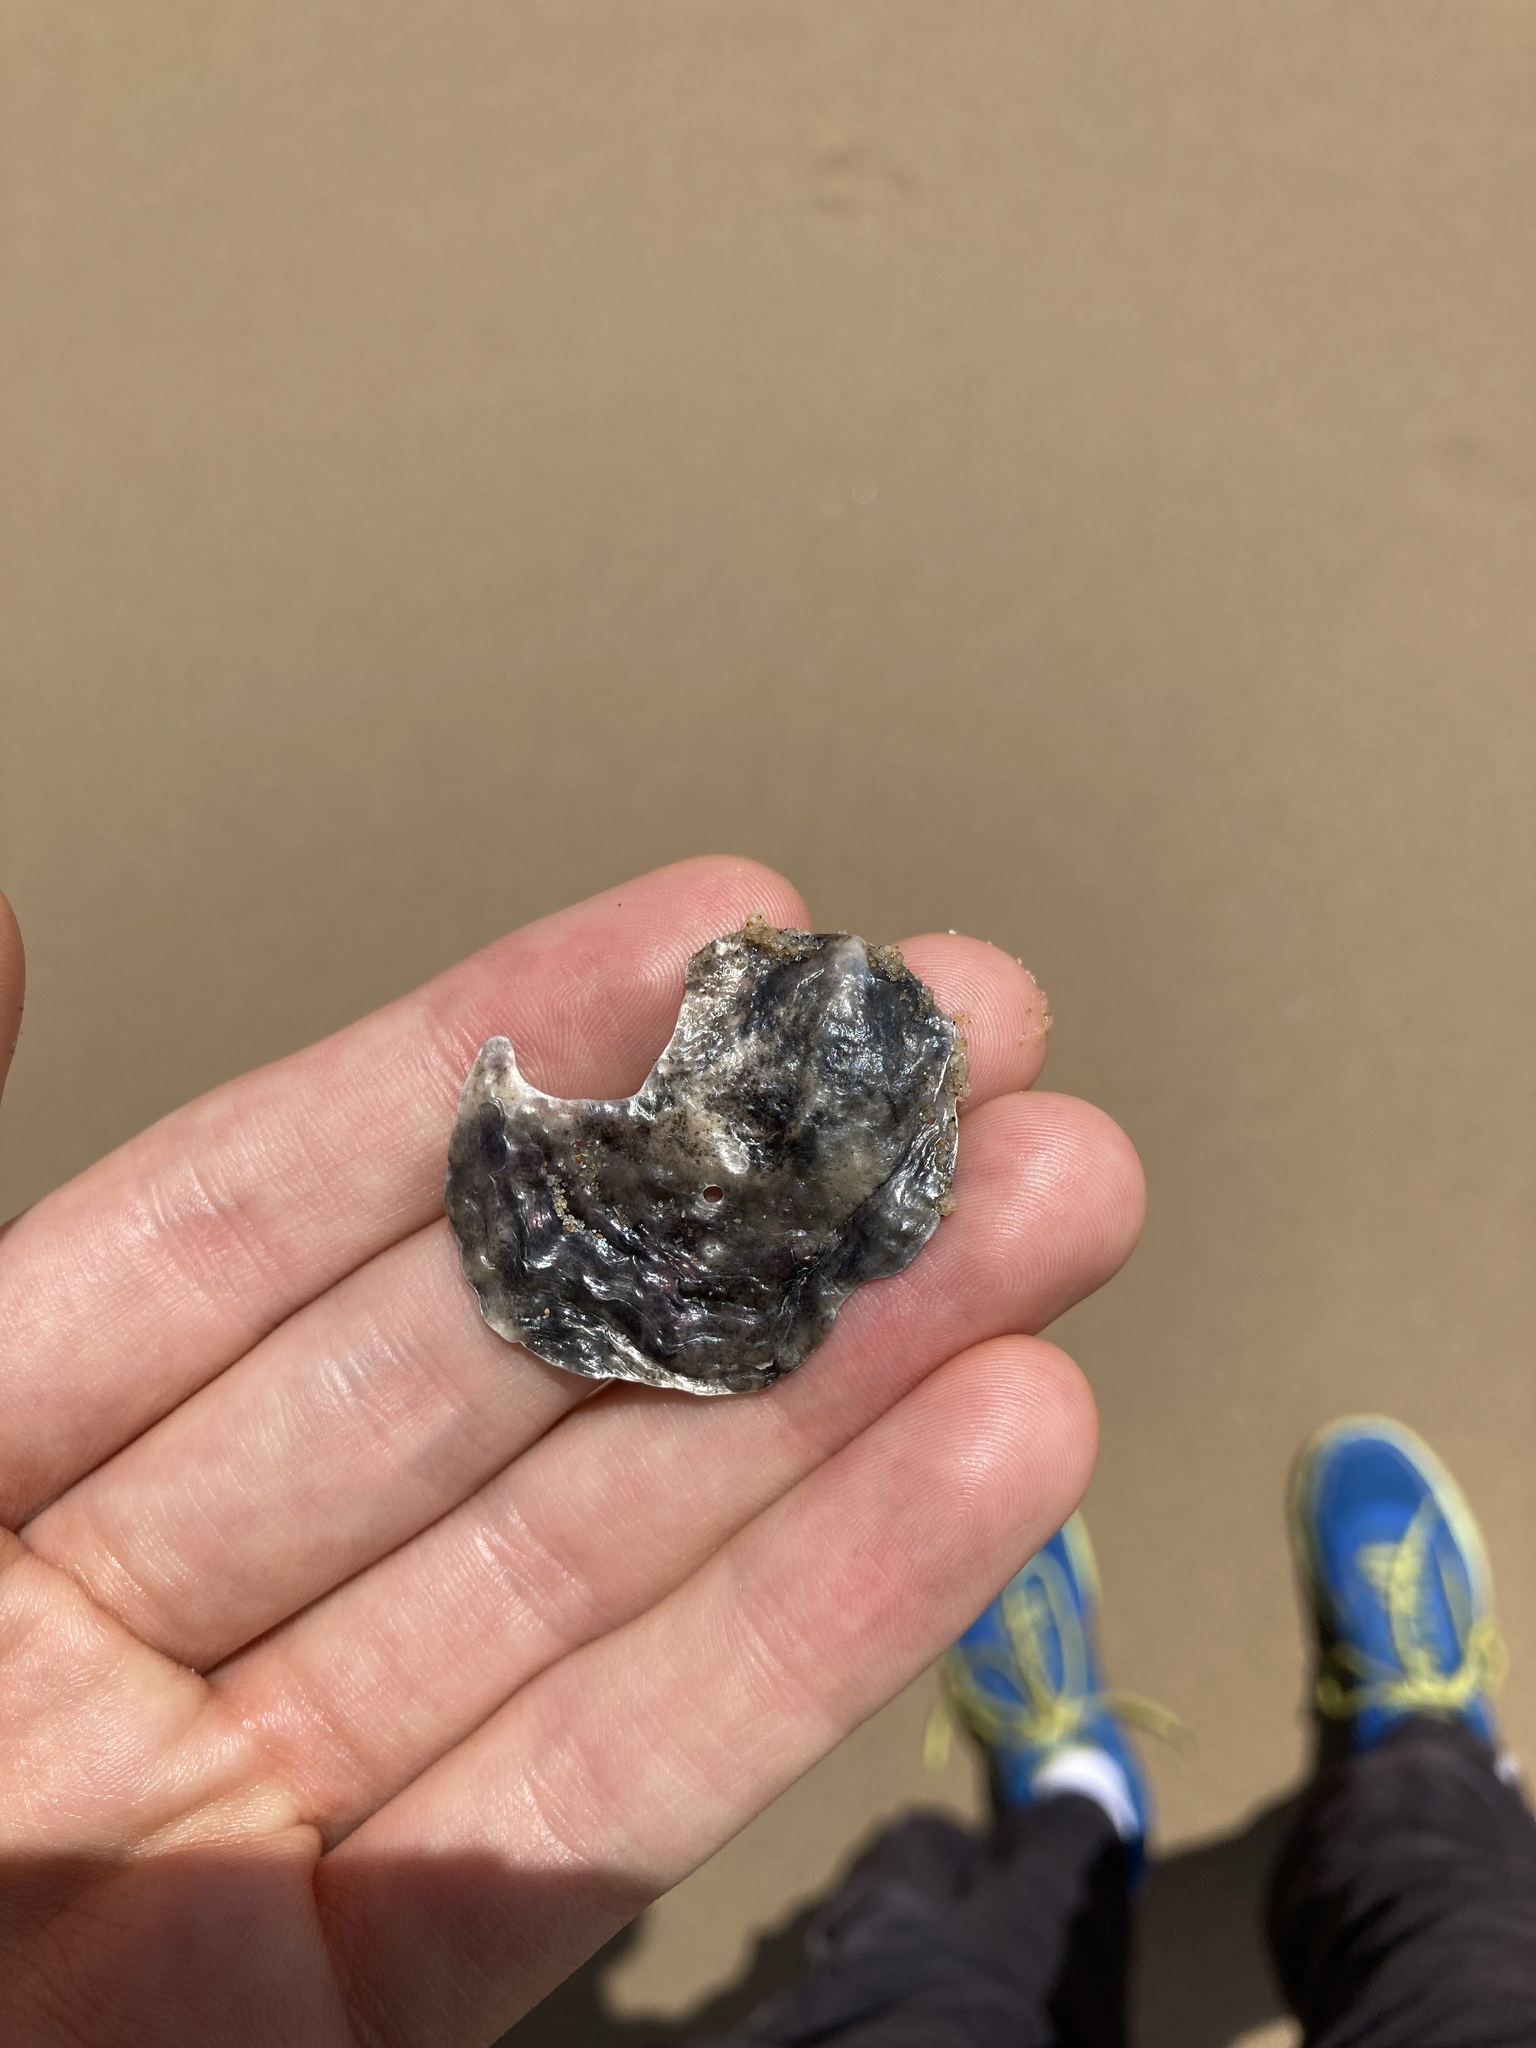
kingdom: Animalia
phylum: Mollusca
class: Bivalvia
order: Pectinida
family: Anomiidae
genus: Anomia
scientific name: Anomia trigonopsis
